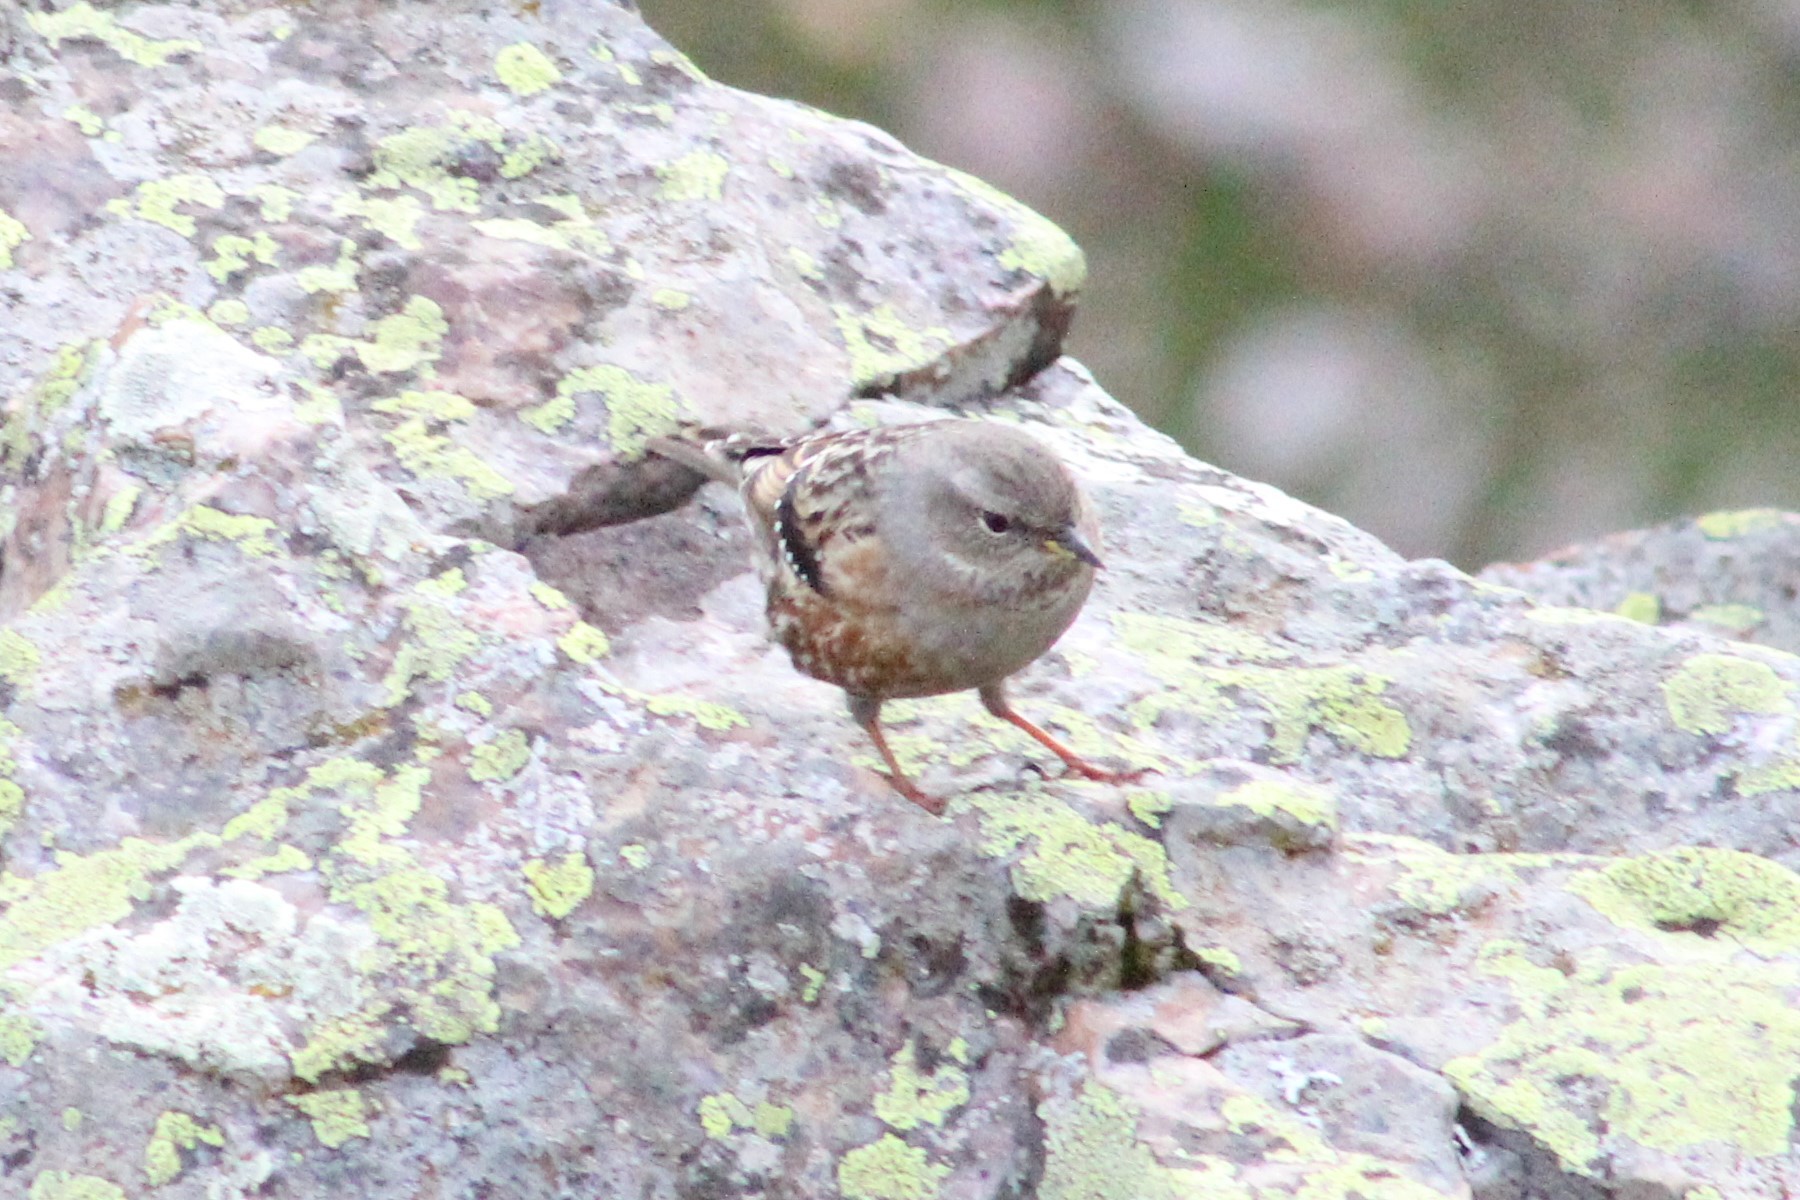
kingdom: Animalia
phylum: Chordata
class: Aves
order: Passeriformes
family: Prunellidae
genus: Prunella
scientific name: Prunella collaris
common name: Alpine accentor
